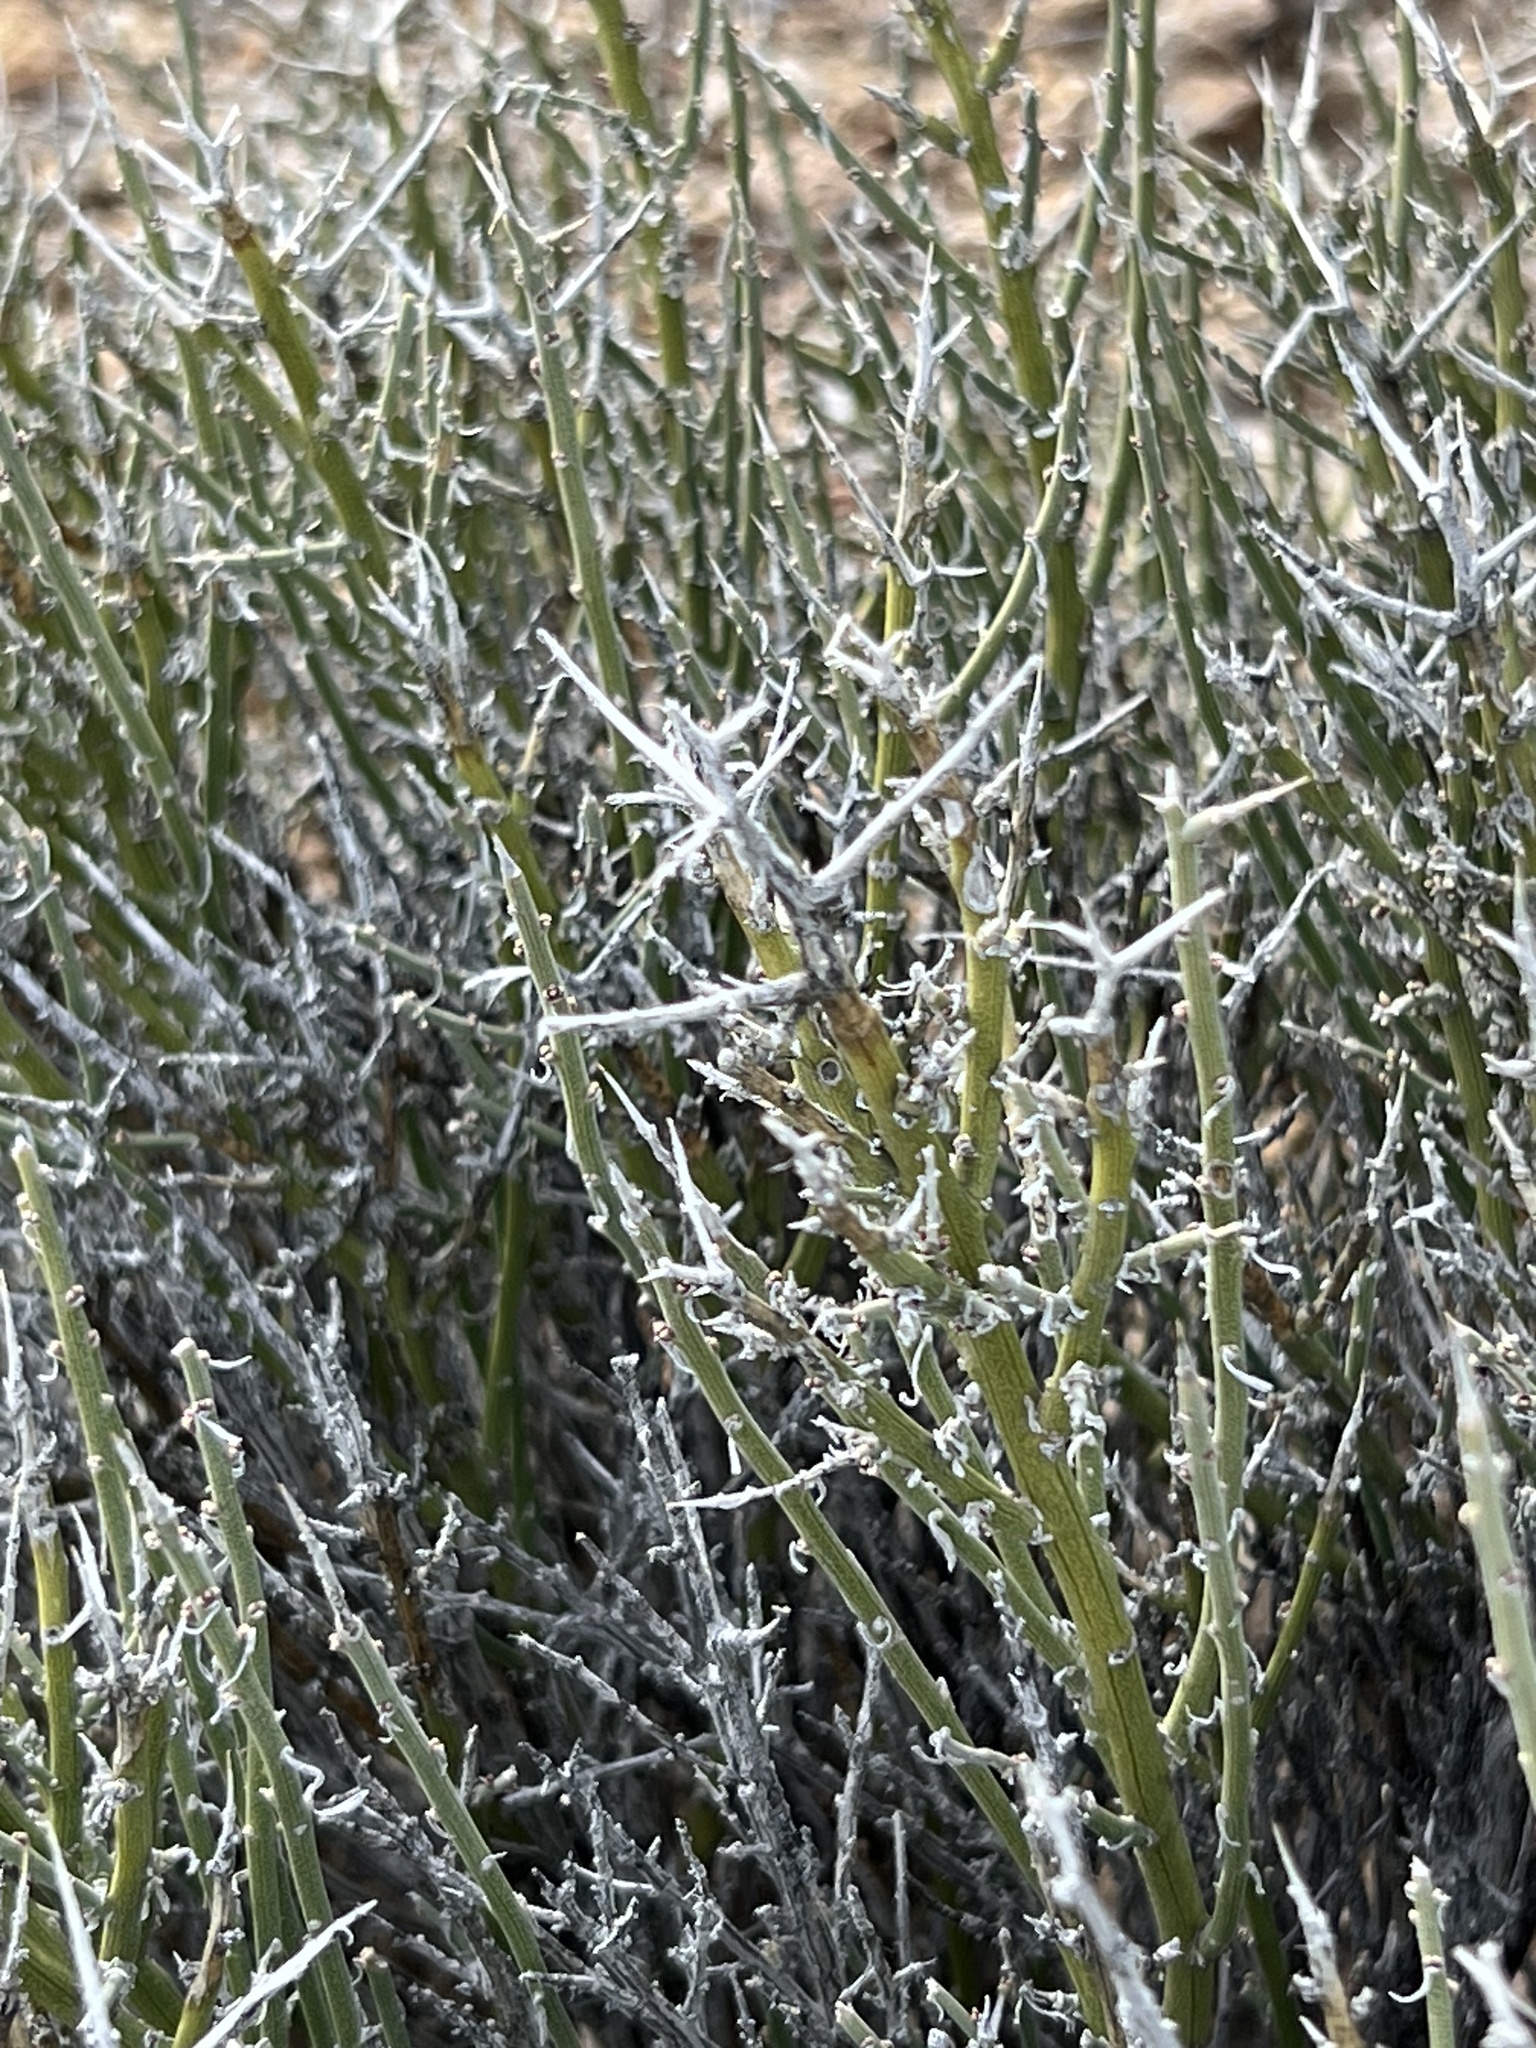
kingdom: Plantae
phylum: Tracheophyta
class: Magnoliopsida
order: Lamiales
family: Oleaceae
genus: Menodora
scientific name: Menodora spinescens
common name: Spiny menodora
